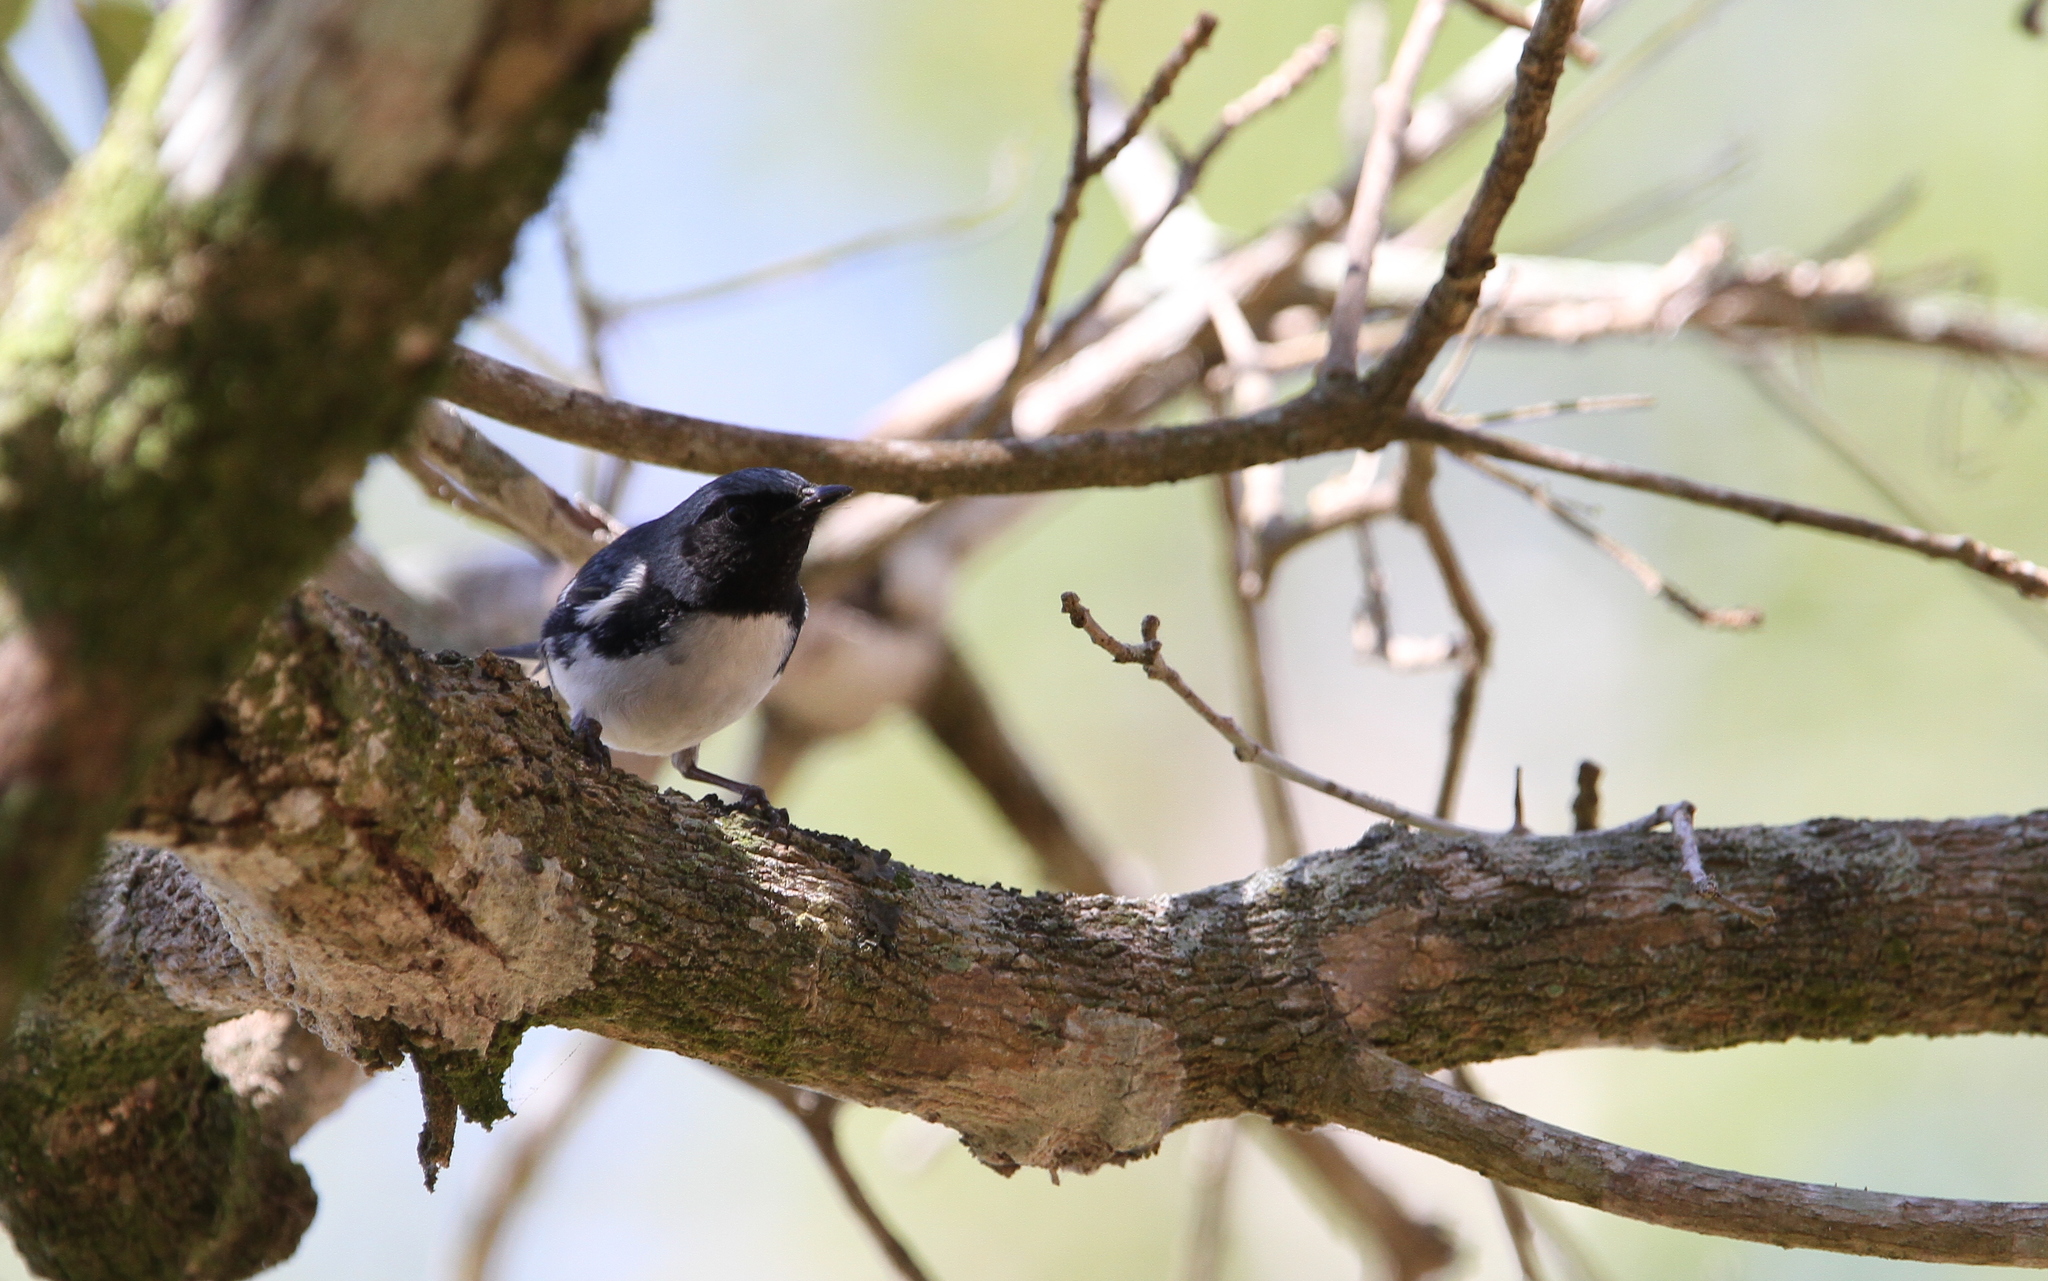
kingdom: Animalia
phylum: Chordata
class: Aves
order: Passeriformes
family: Parulidae
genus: Setophaga
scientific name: Setophaga caerulescens
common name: Black-throated blue warbler
